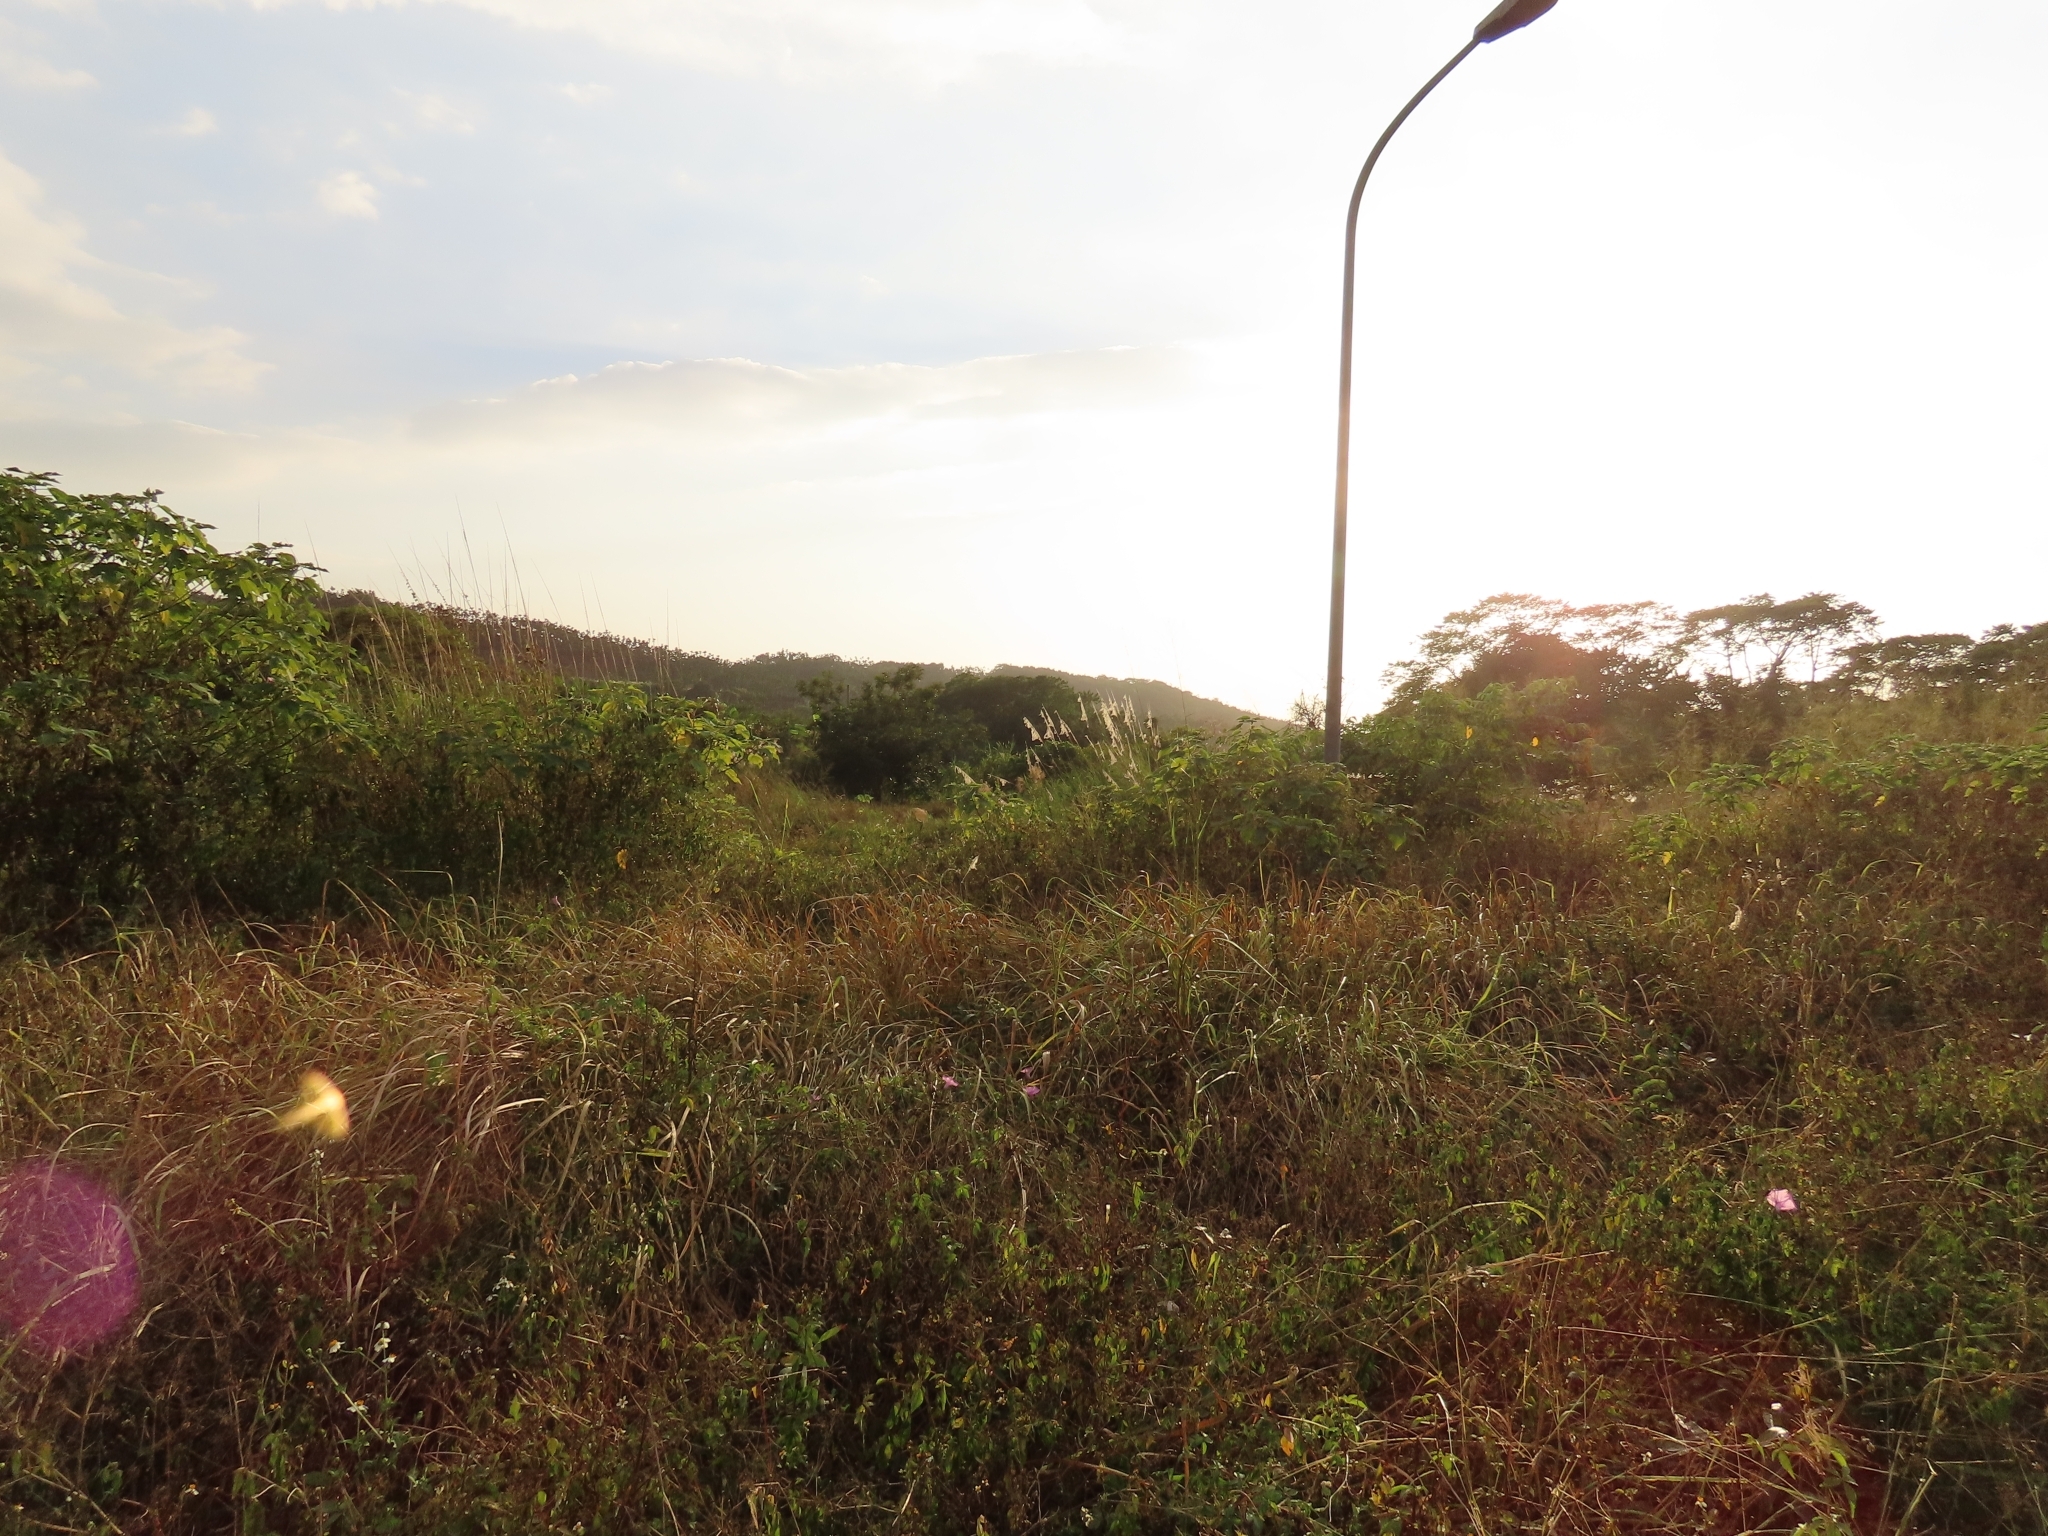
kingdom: Plantae
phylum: Tracheophyta
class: Liliopsida
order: Poales
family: Poaceae
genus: Saccharum
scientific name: Saccharum spontaneum
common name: Wild sugarcane
